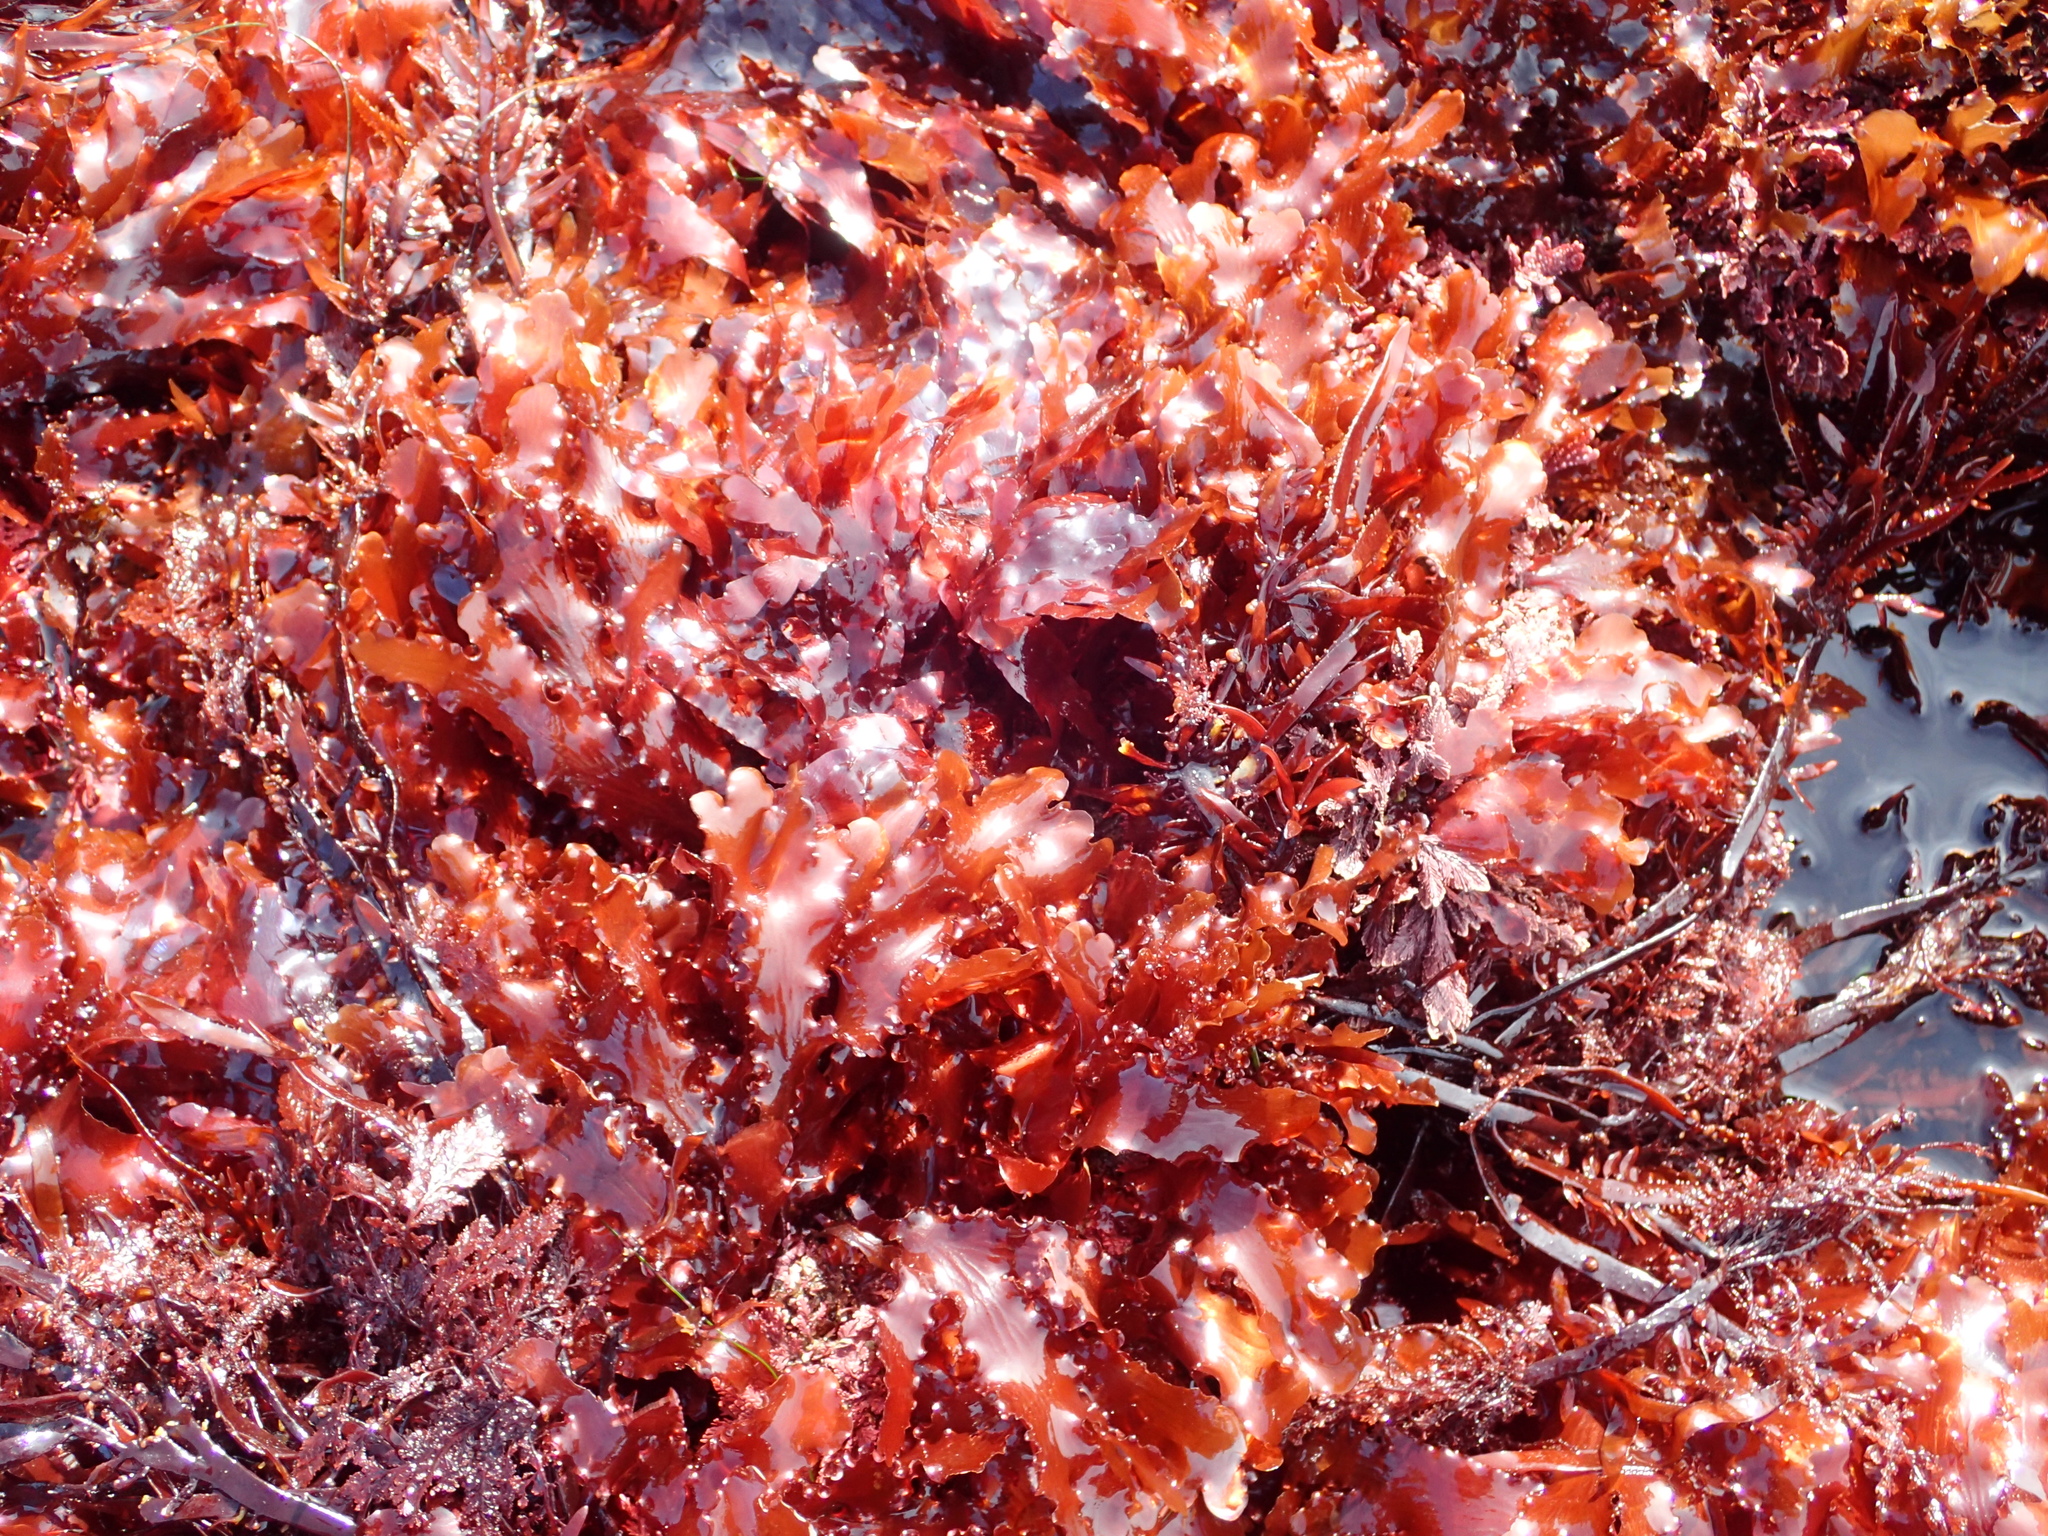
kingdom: Plantae
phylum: Rhodophyta
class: Florideophyceae
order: Ceramiales
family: Delesseriaceae
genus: Cryptopleura
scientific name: Cryptopleura ruprechtiana
